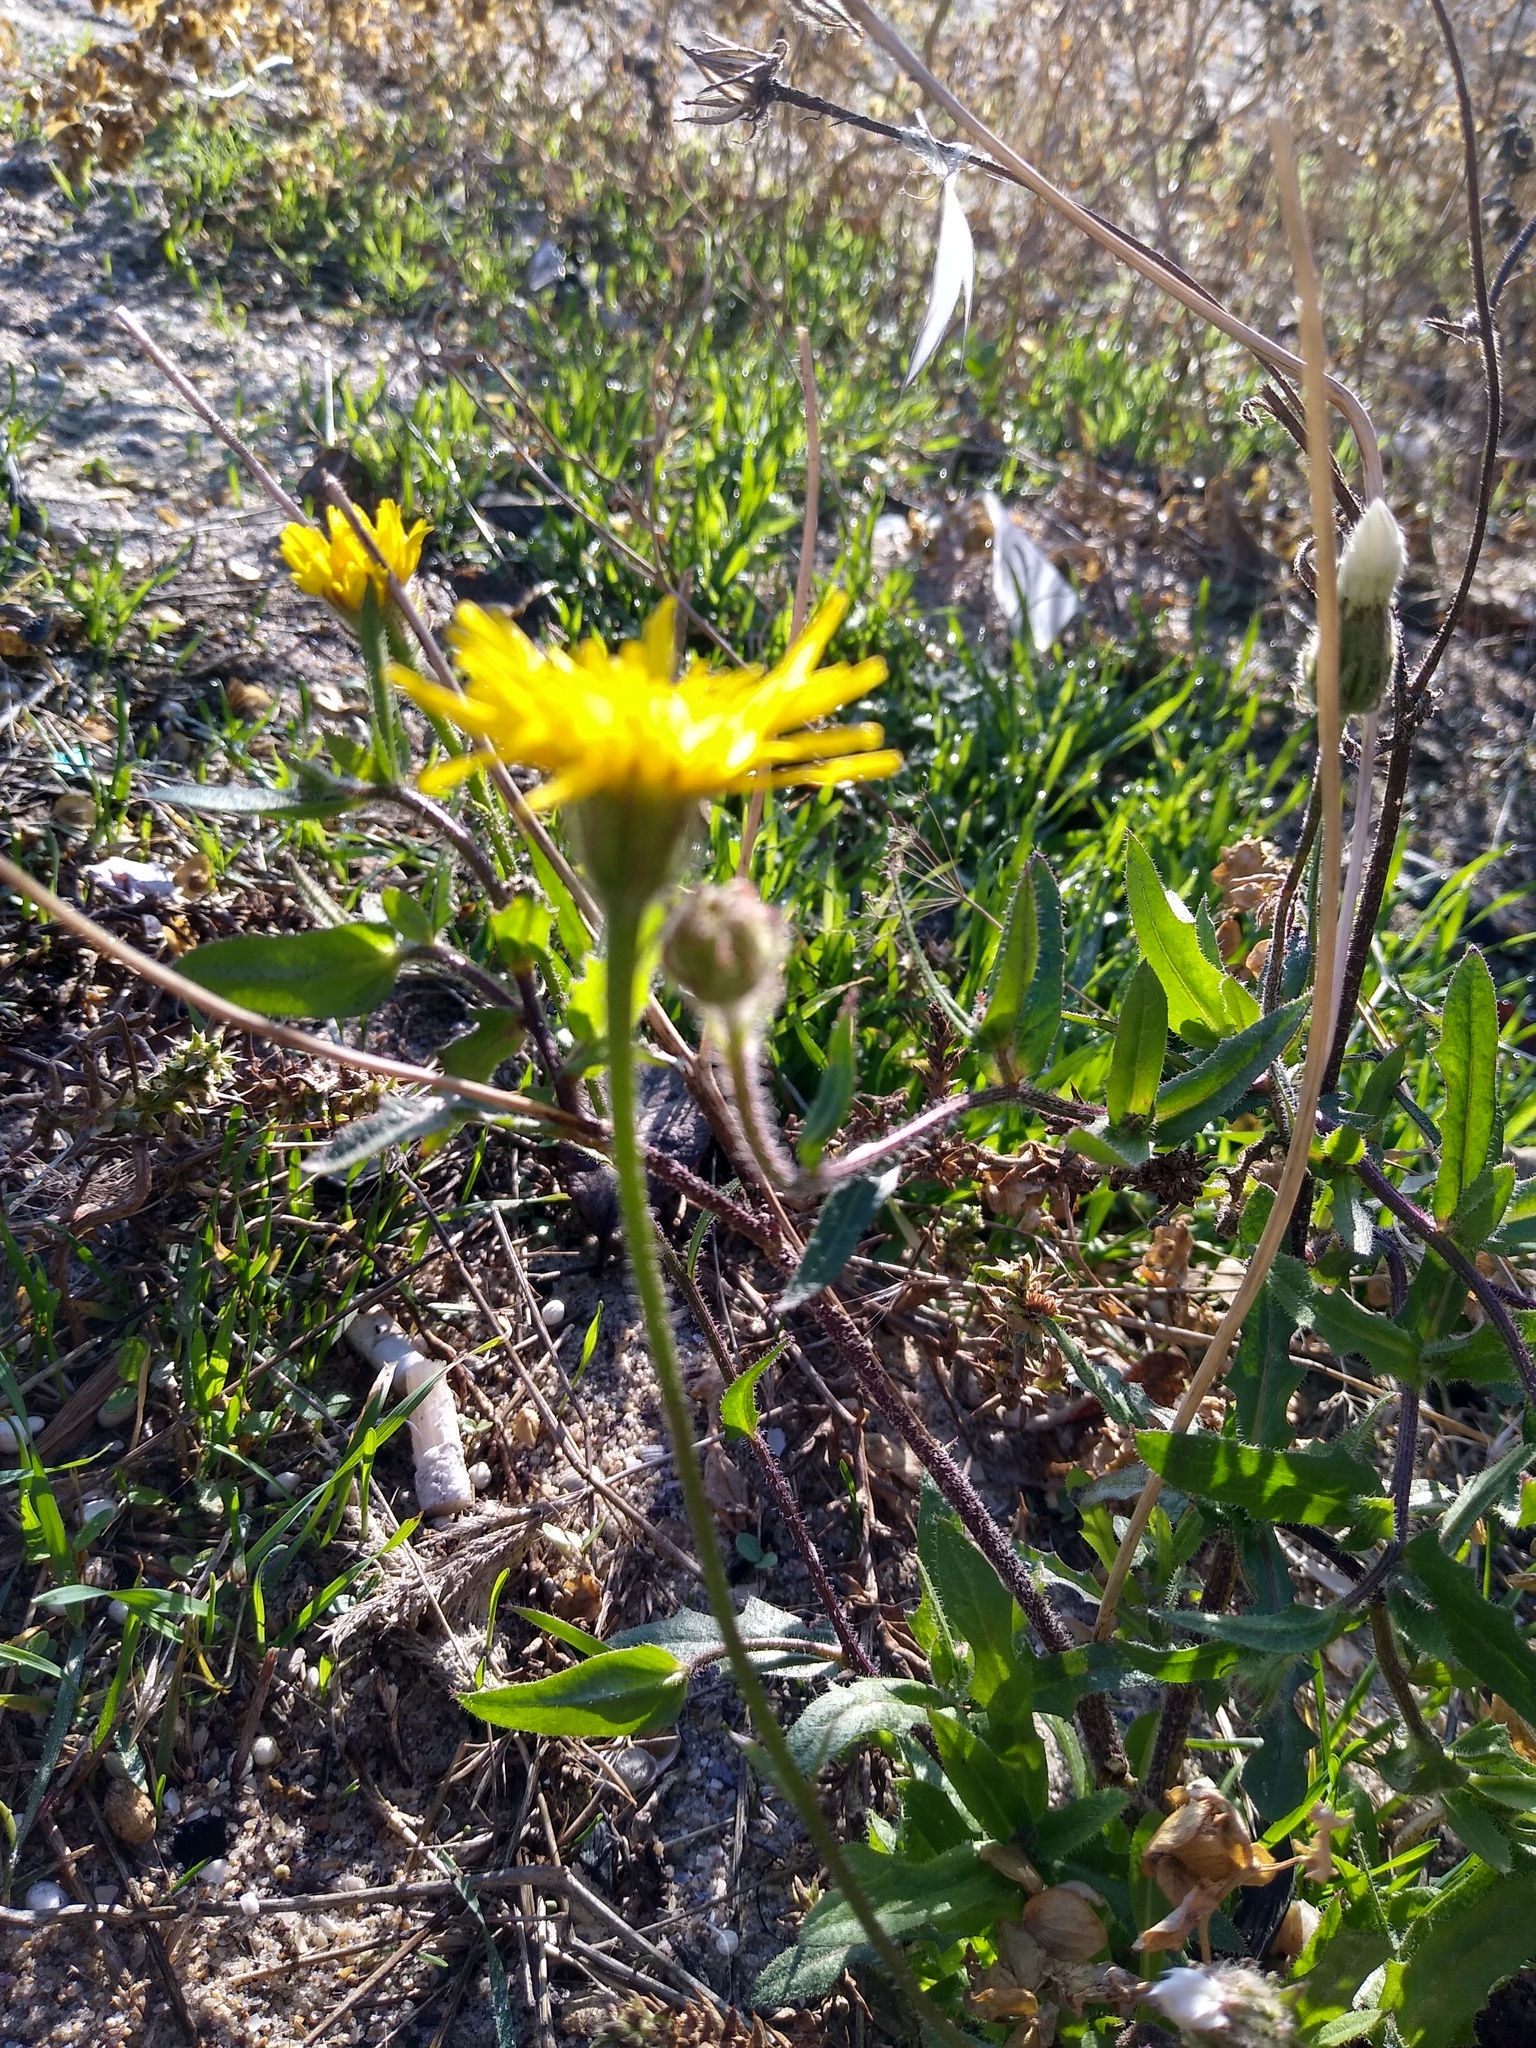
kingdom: Plantae
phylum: Tracheophyta
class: Magnoliopsida
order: Asterales
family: Asteraceae
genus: Crepis
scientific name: Crepis foetida
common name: Stinking hawk's-beard
